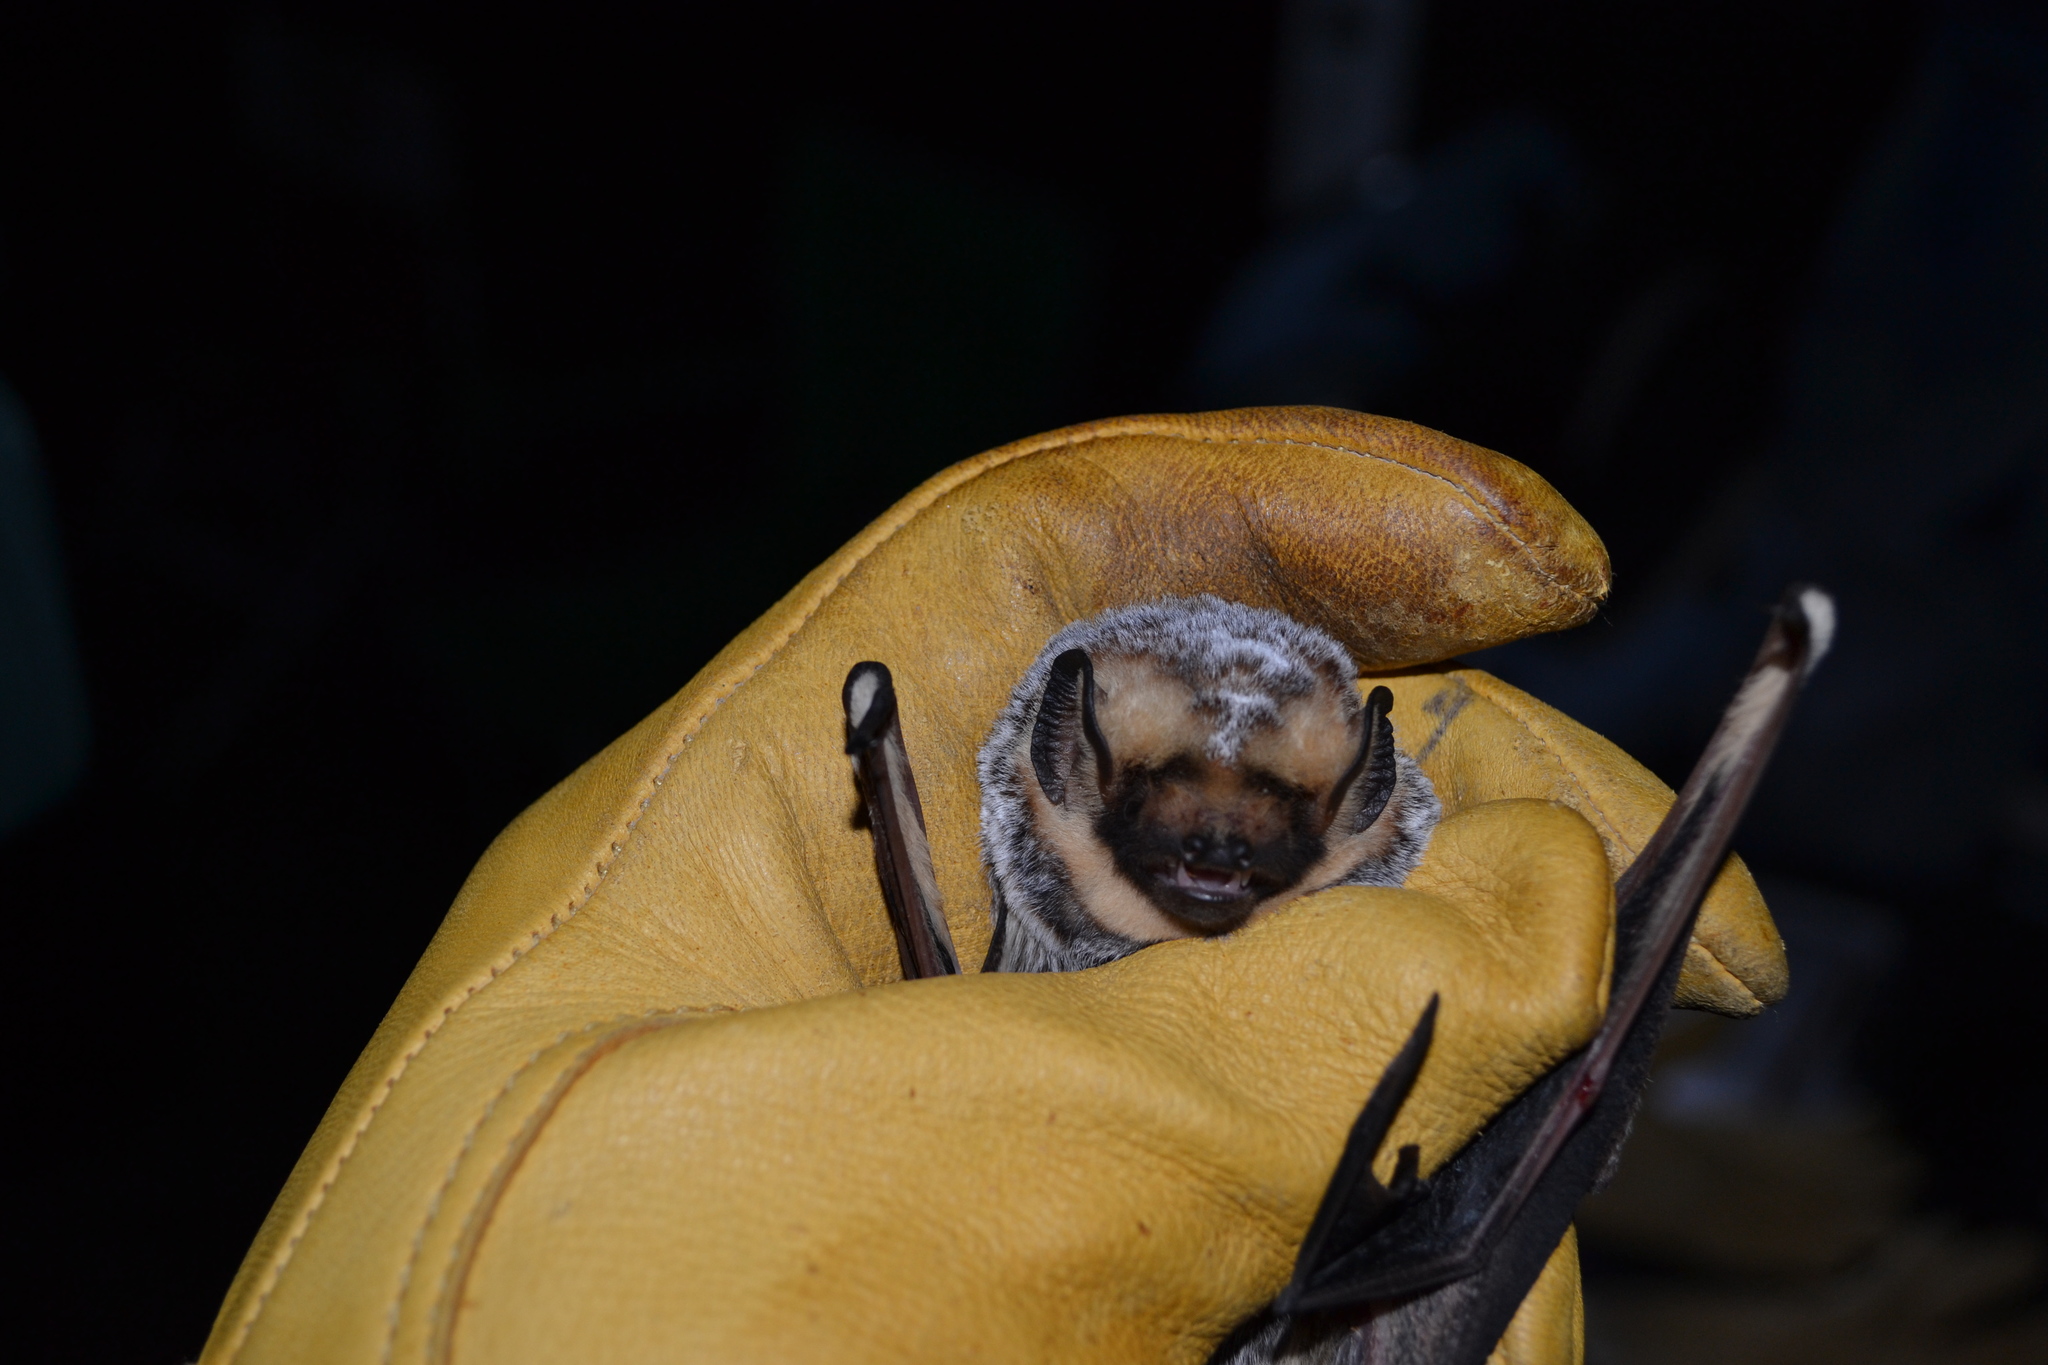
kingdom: Animalia
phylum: Chordata
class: Mammalia
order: Chiroptera
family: Vespertilionidae
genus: Aeorestes
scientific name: Aeorestes cinereus
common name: North american hoary bat
